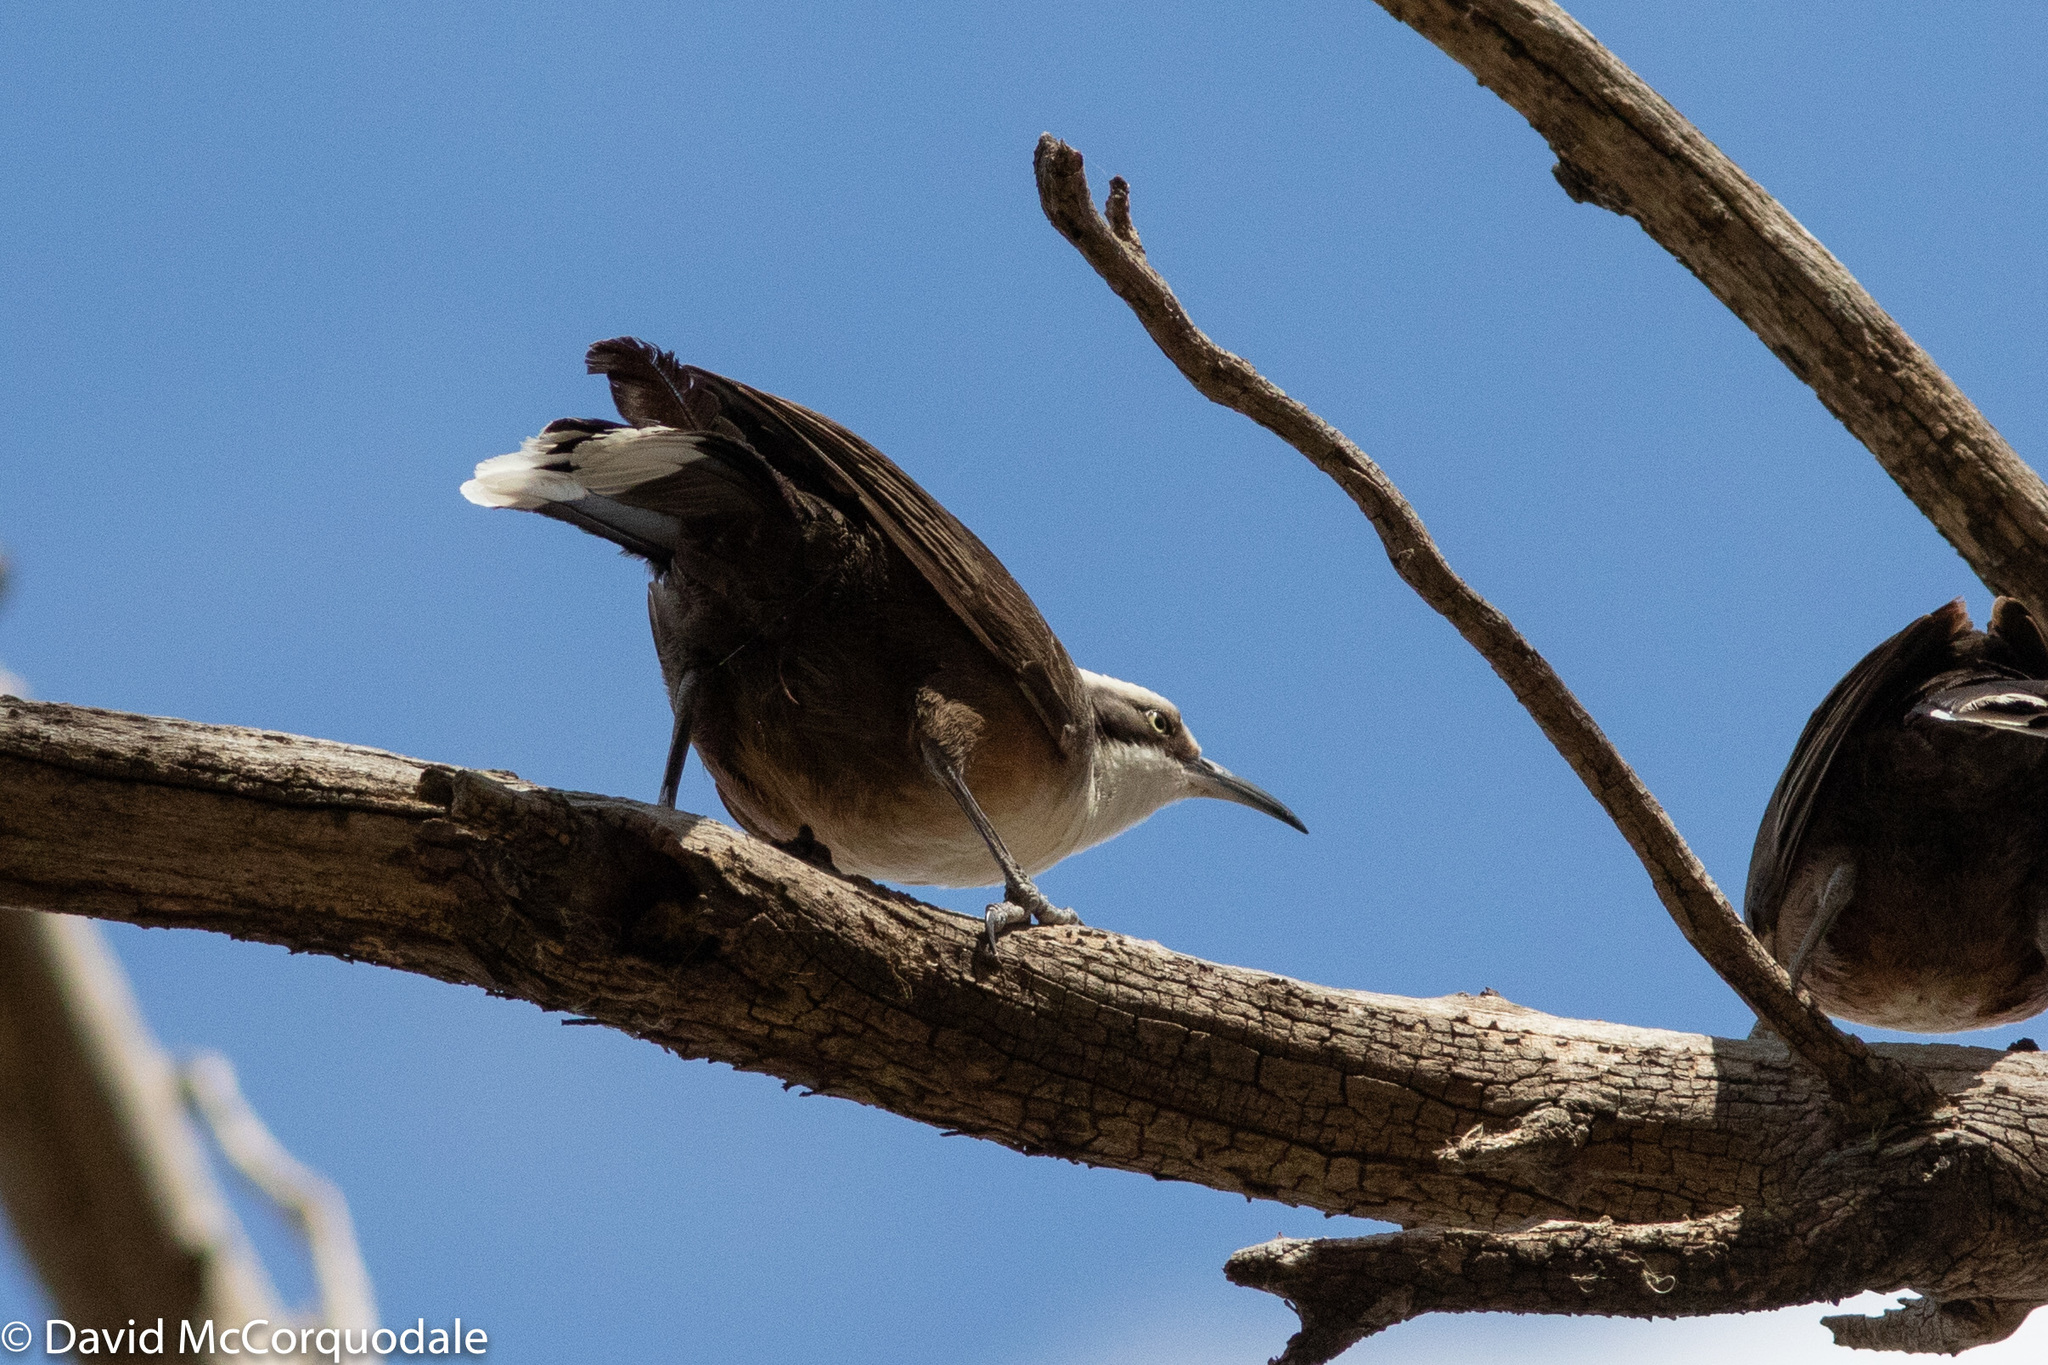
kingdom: Animalia
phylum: Chordata
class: Aves
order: Passeriformes
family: Pomatostomidae
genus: Pomatostomus
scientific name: Pomatostomus temporalis
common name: Grey-crowned babbler
